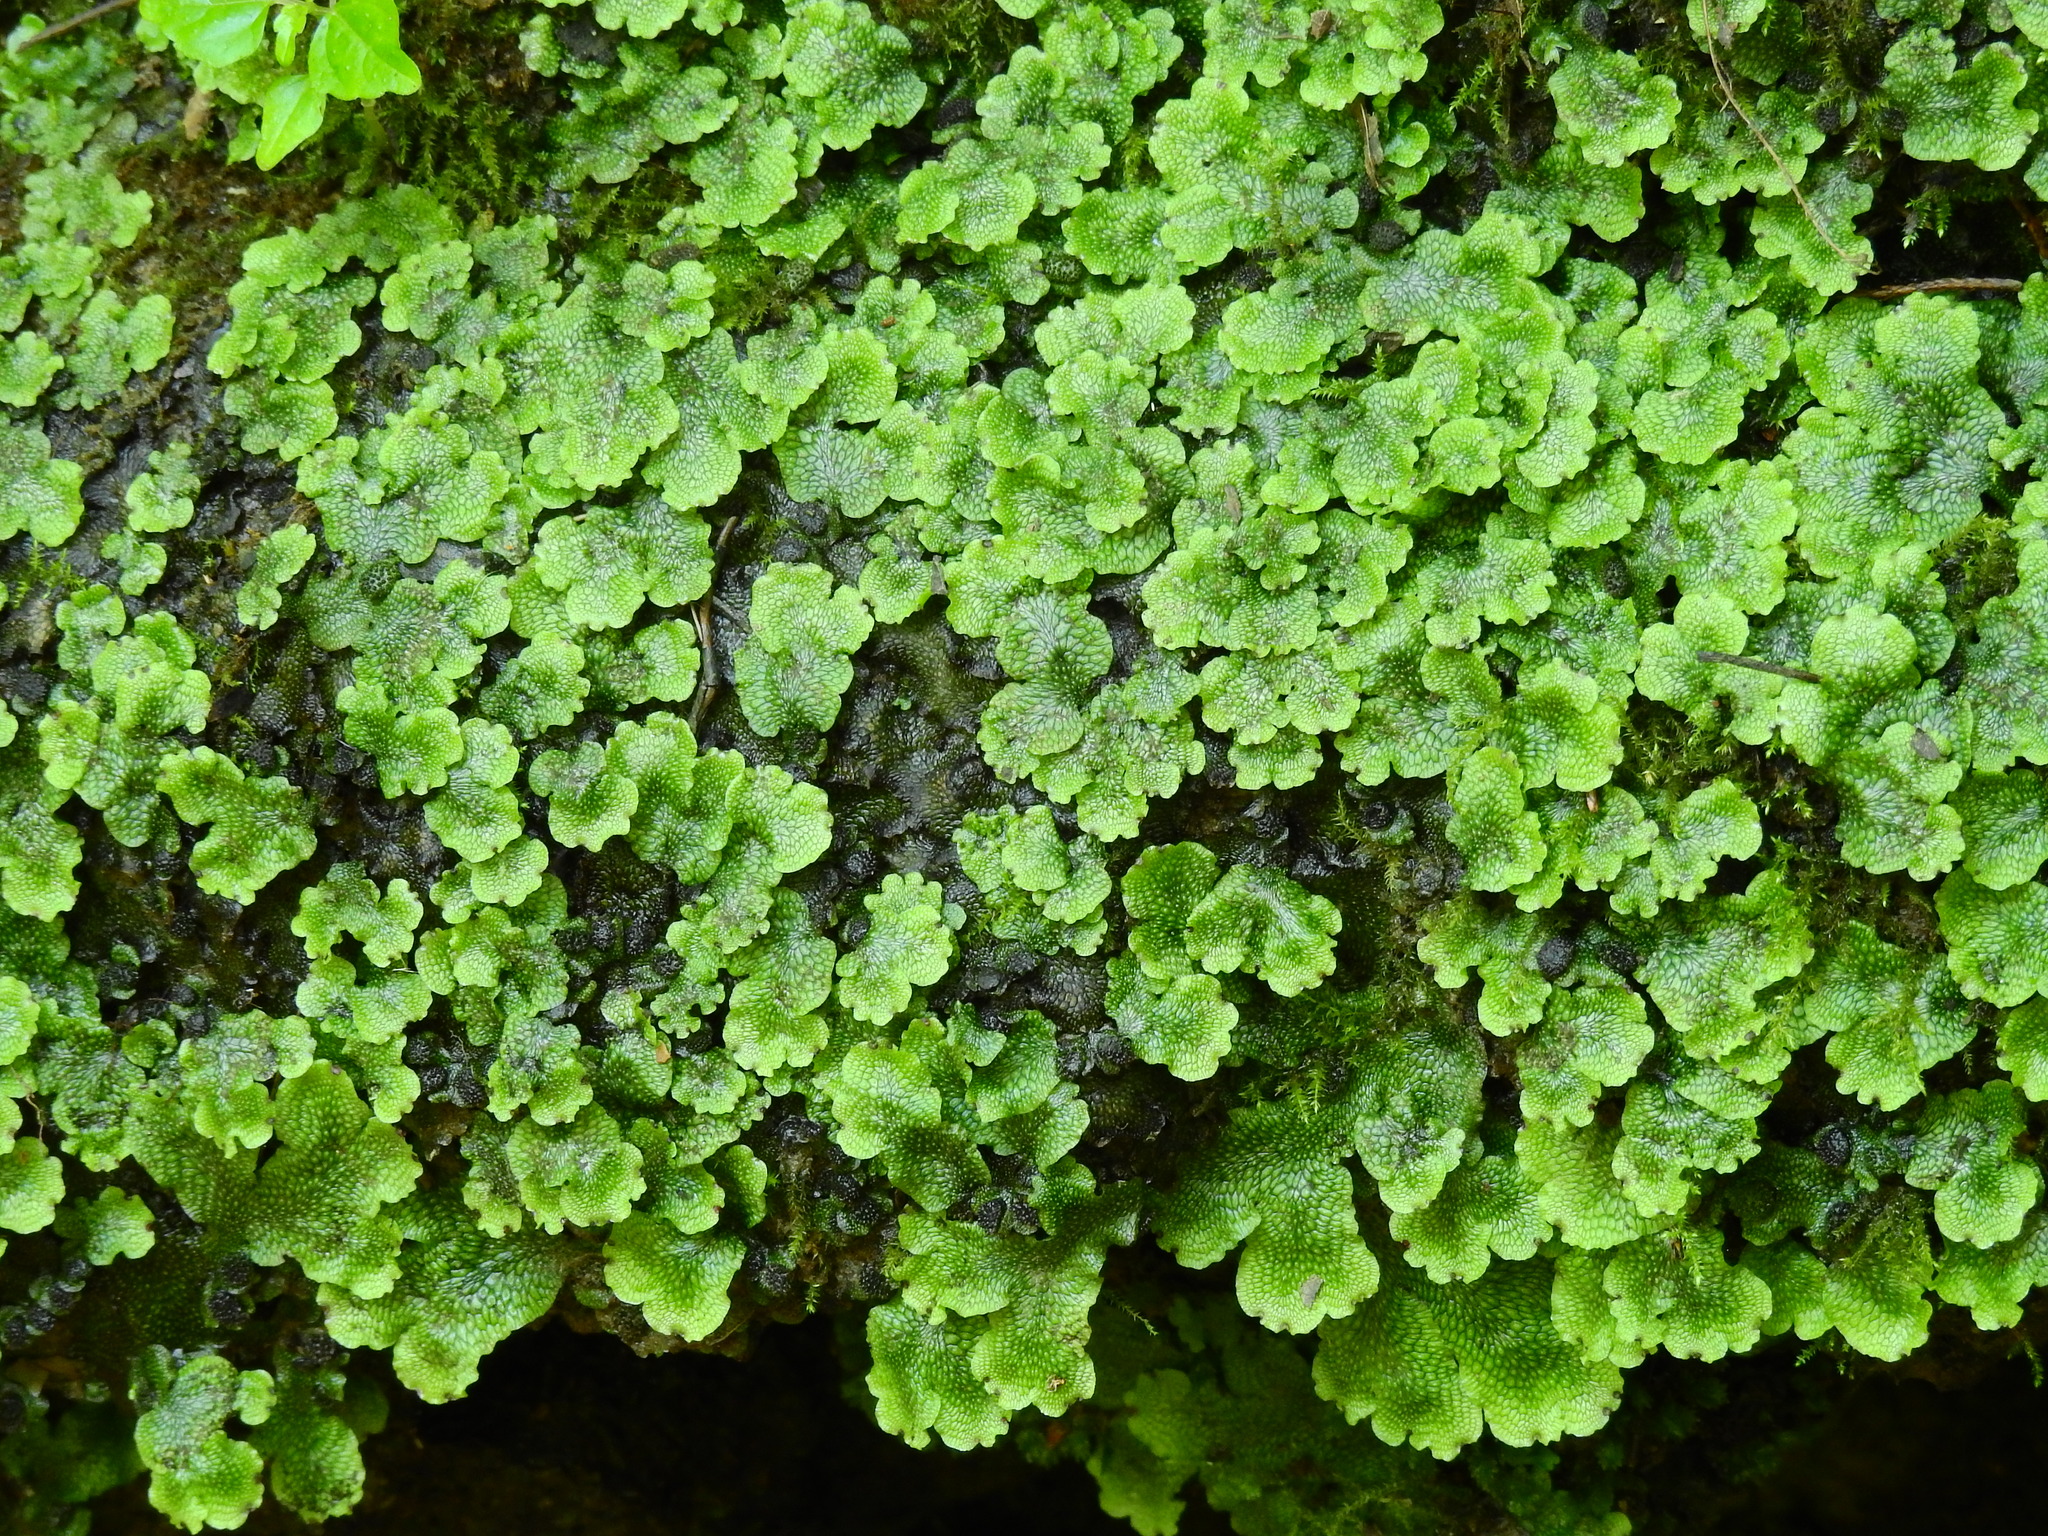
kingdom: Plantae
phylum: Marchantiophyta
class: Marchantiopsida
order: Marchantiales
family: Conocephalaceae
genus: Conocephalum
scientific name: Conocephalum salebrosum
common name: Cat-tongue liverwort
